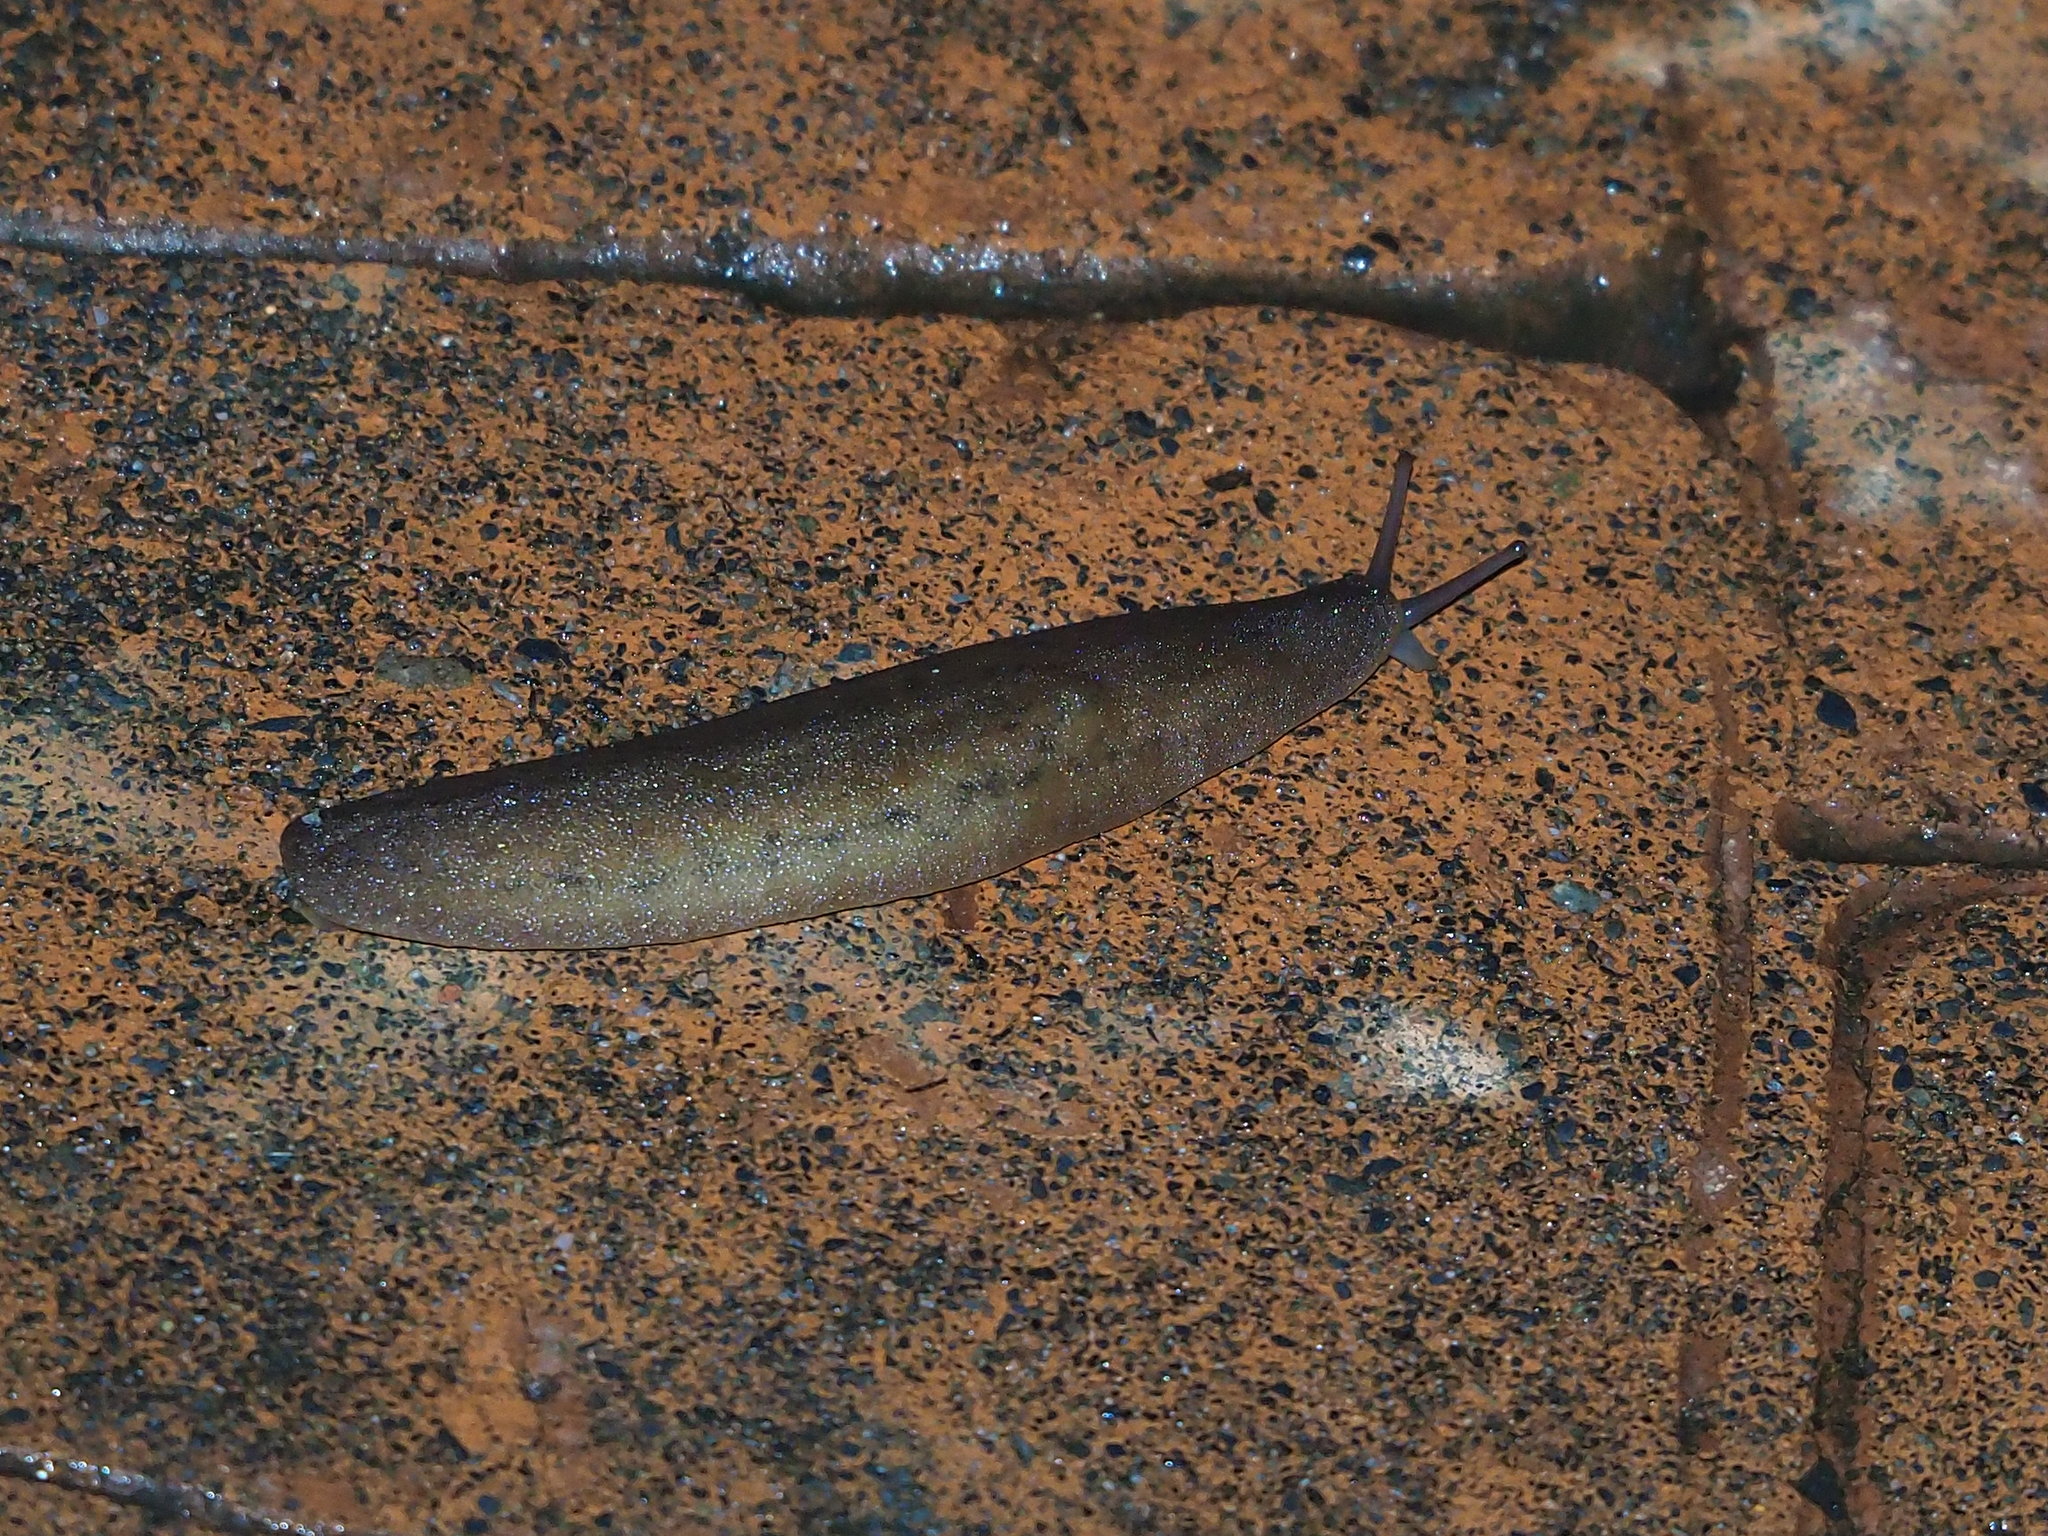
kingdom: Animalia
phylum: Mollusca
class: Gastropoda
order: Systellommatophora
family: Veronicellidae
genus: Laevicaulis
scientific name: Laevicaulis alte
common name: Tropical leatherleaf
